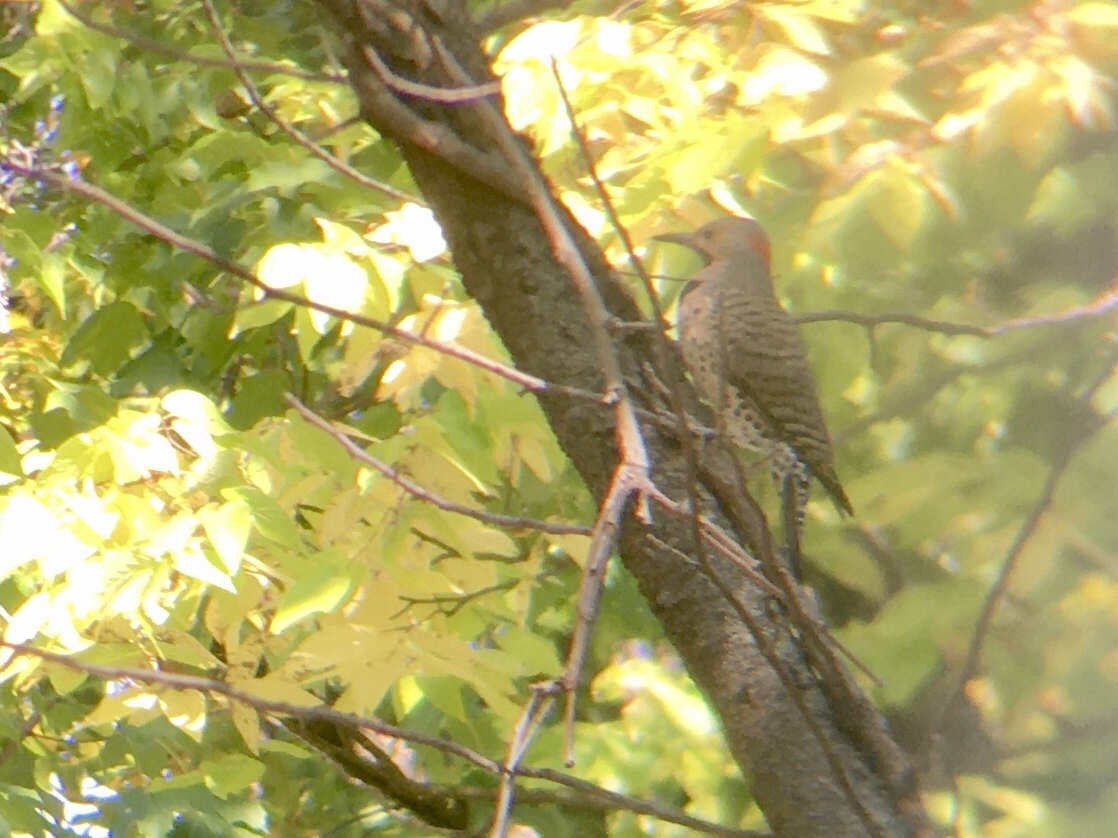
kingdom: Animalia
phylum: Chordata
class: Aves
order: Piciformes
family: Picidae
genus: Colaptes
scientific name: Colaptes auratus
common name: Northern flicker
